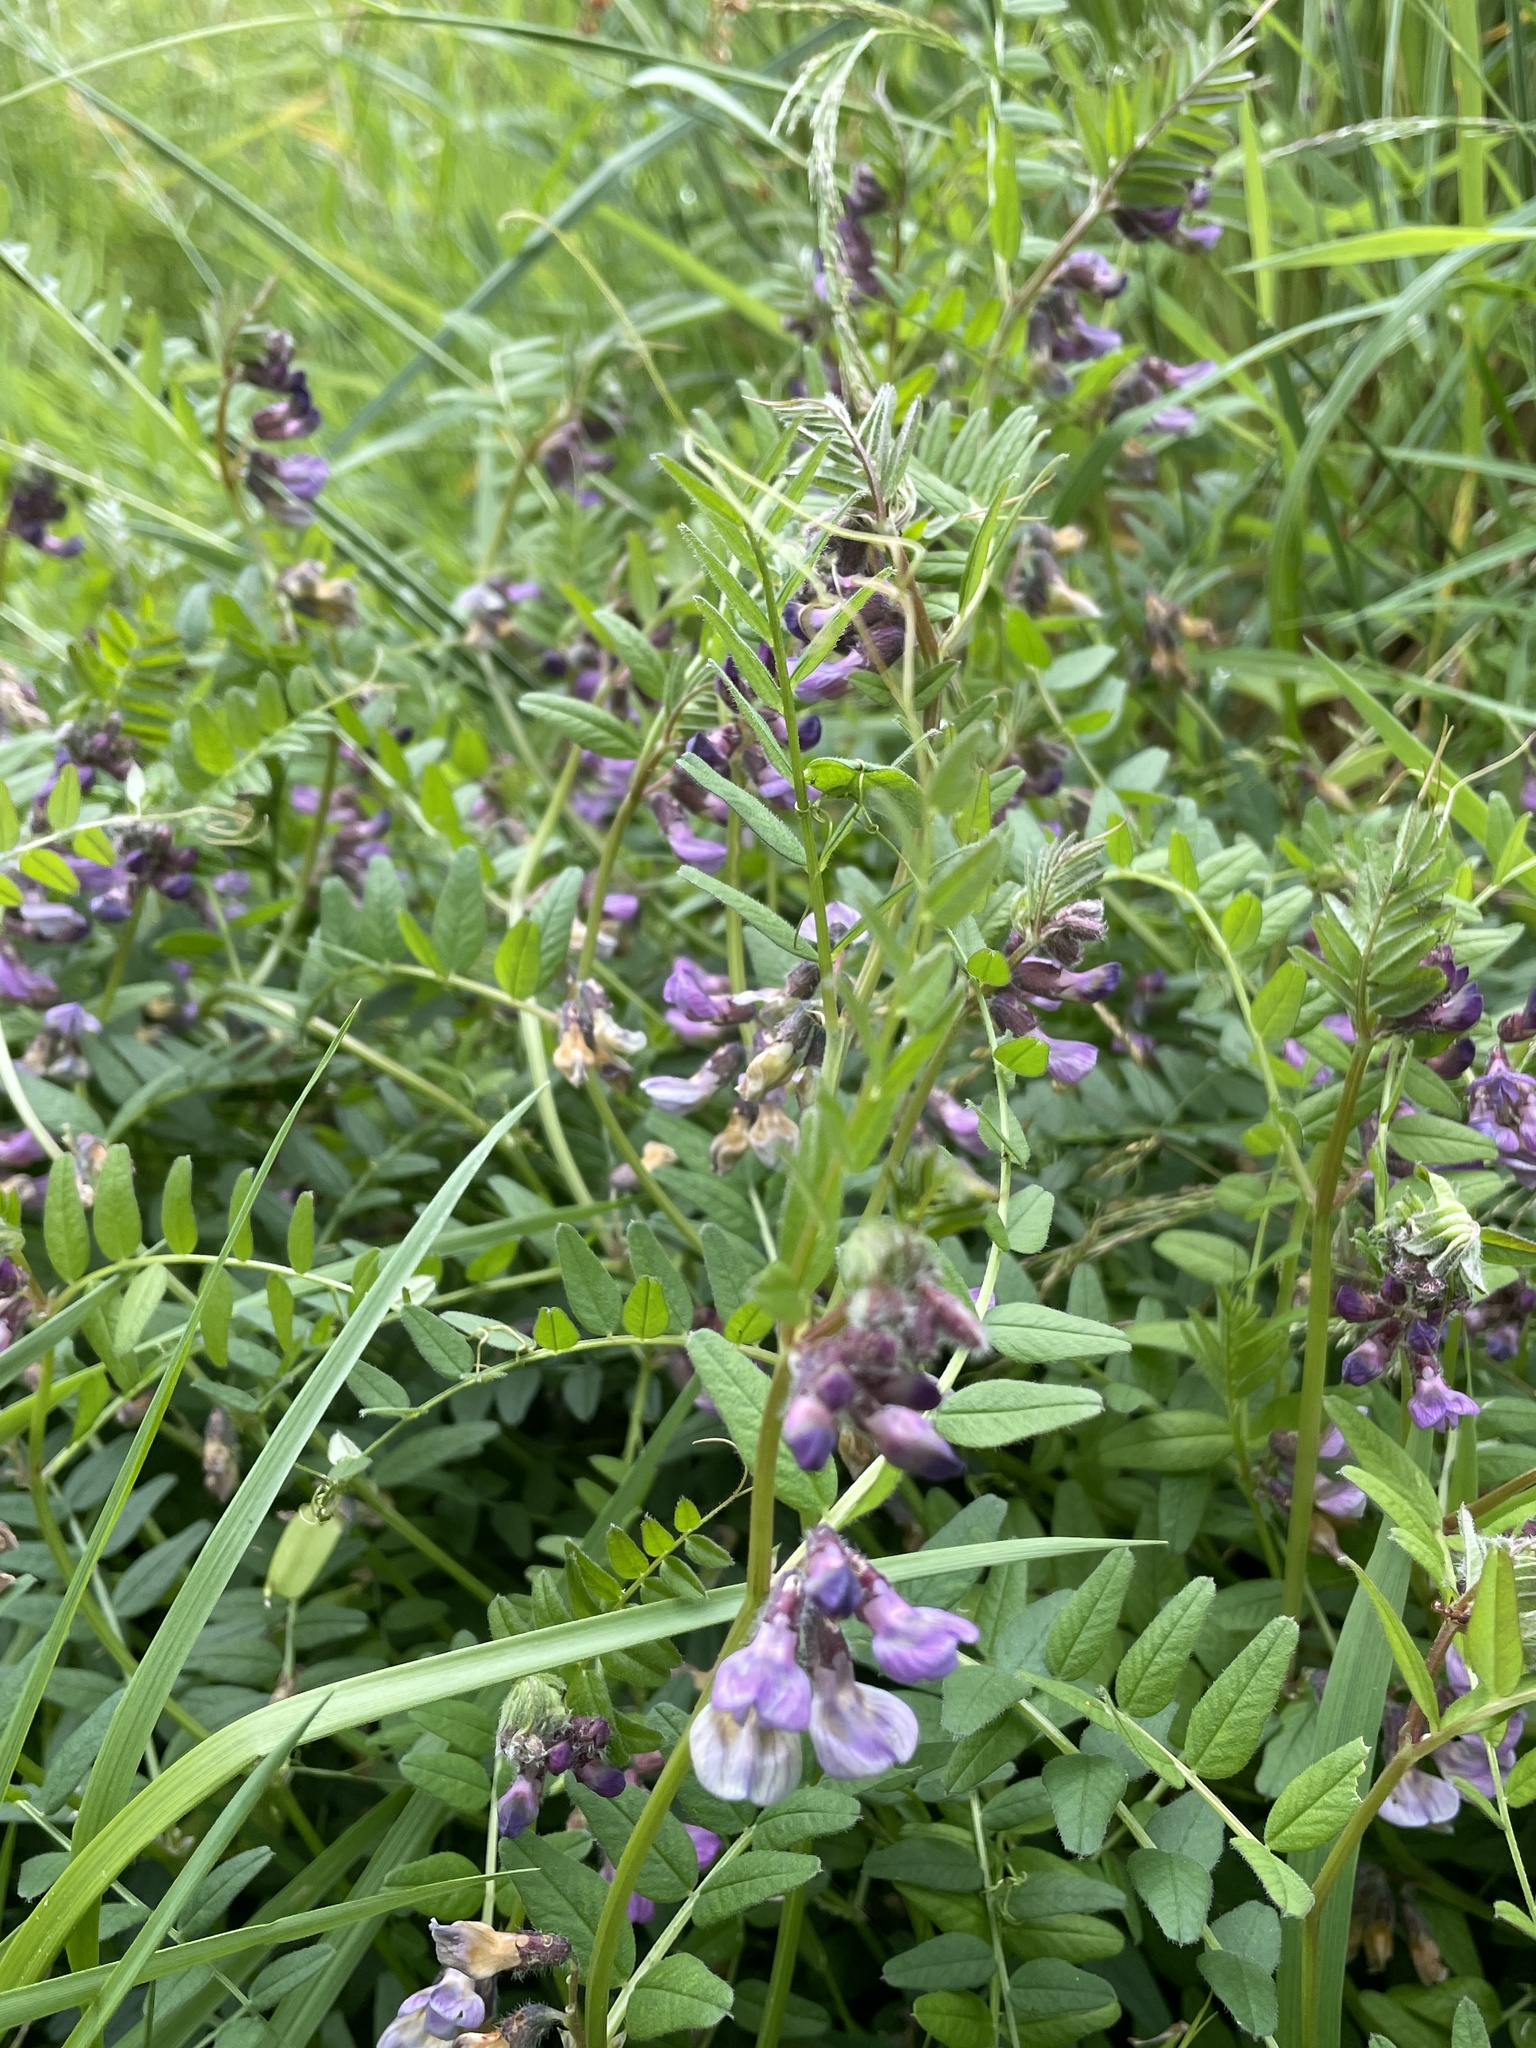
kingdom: Plantae
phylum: Tracheophyta
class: Magnoliopsida
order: Fabales
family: Fabaceae
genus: Vicia
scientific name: Vicia sepium
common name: Bush vetch
